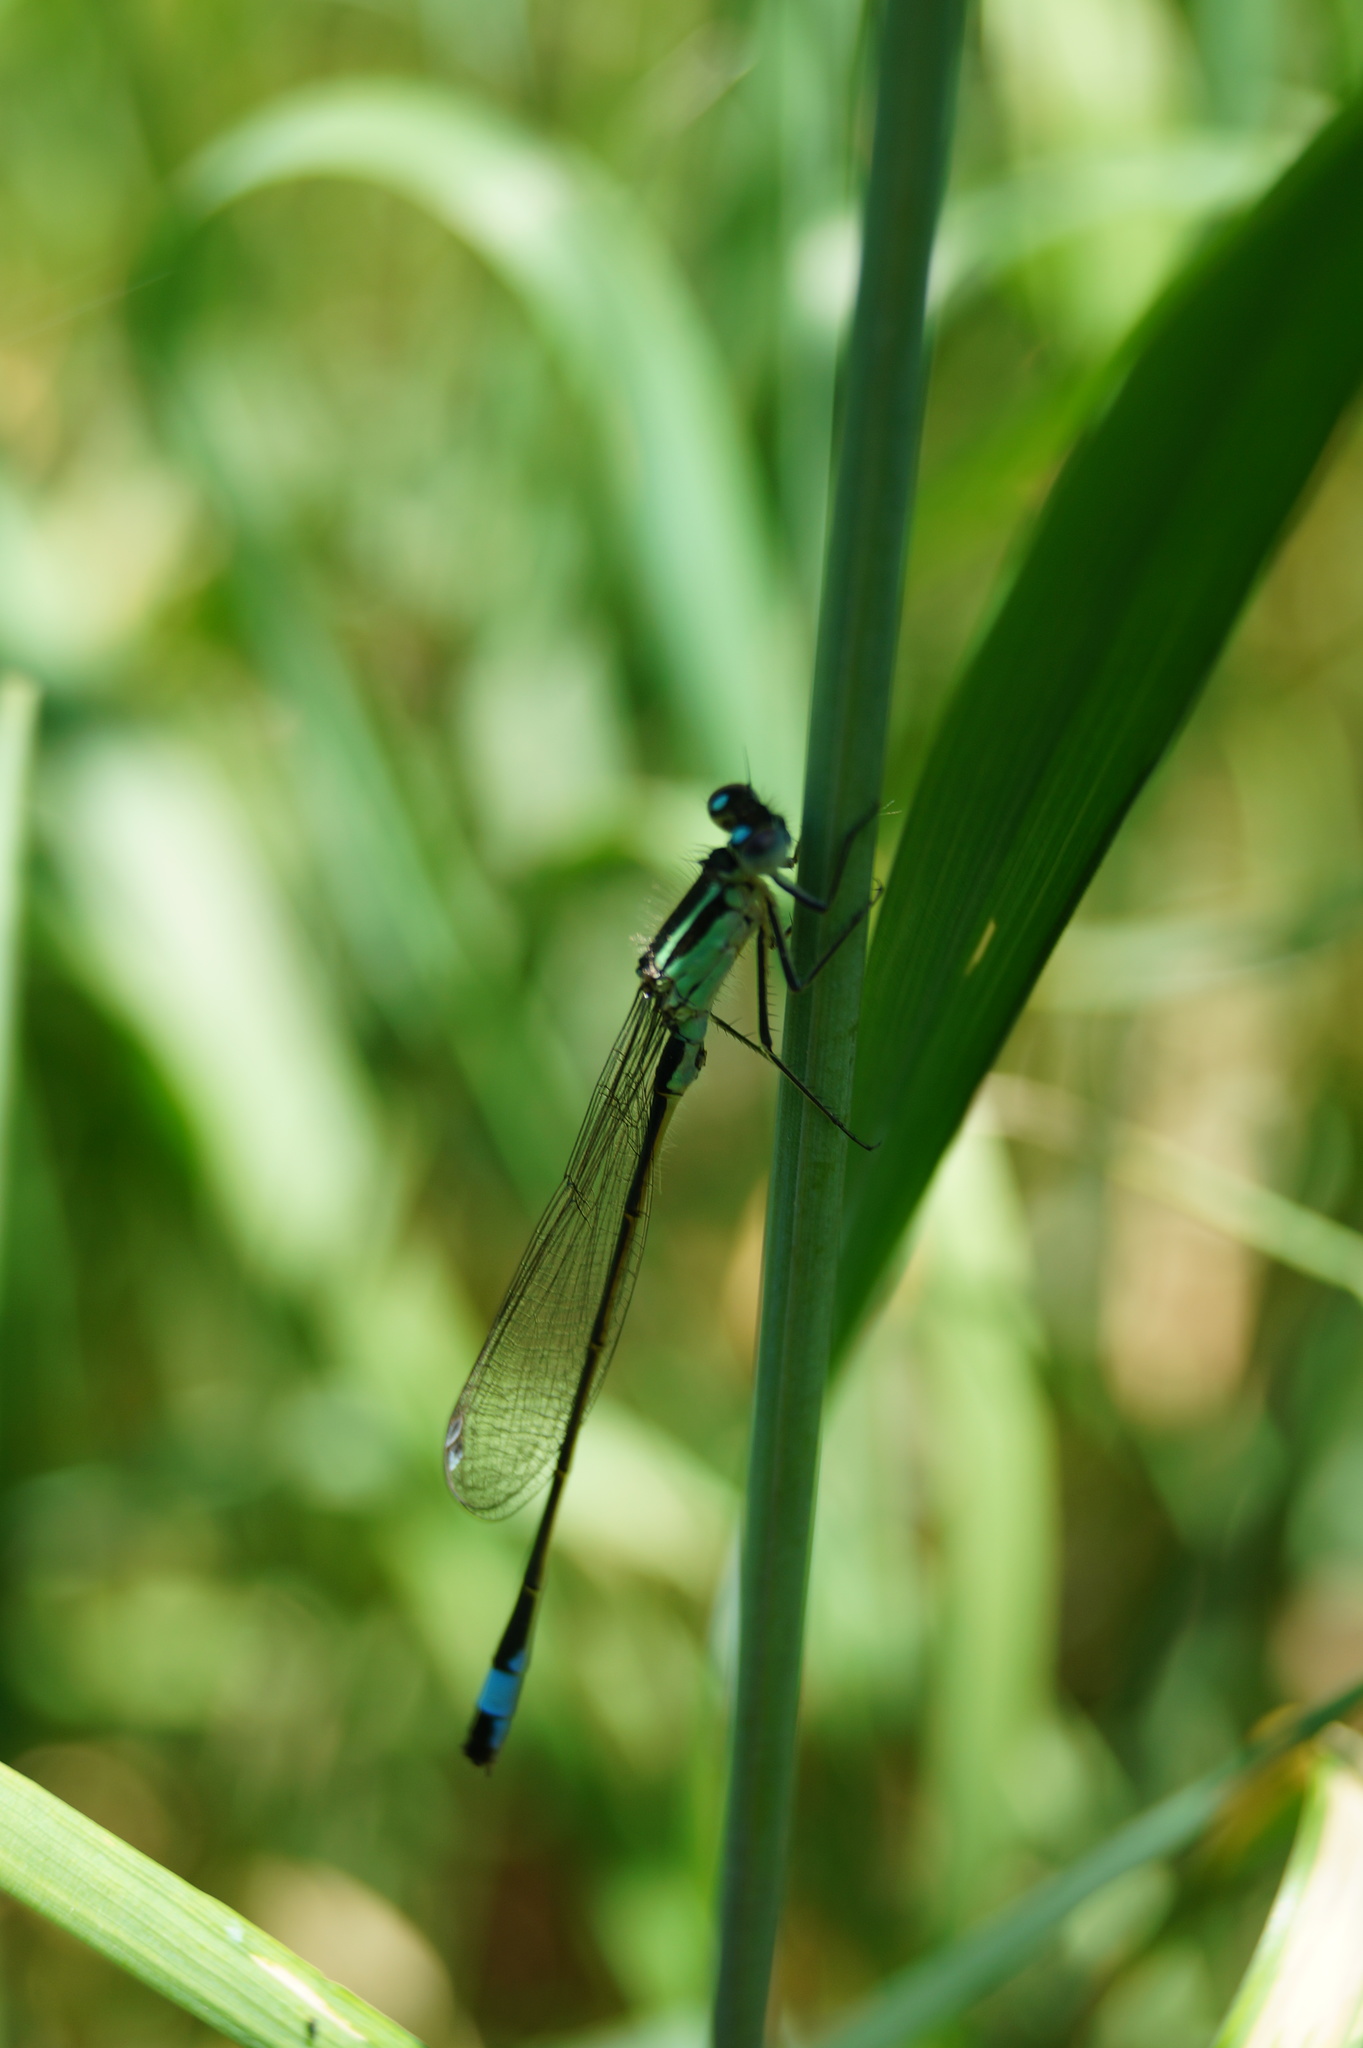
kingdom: Animalia
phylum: Arthropoda
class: Insecta
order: Odonata
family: Coenagrionidae
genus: Ischnura
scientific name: Ischnura elegans
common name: Blue-tailed damselfly
